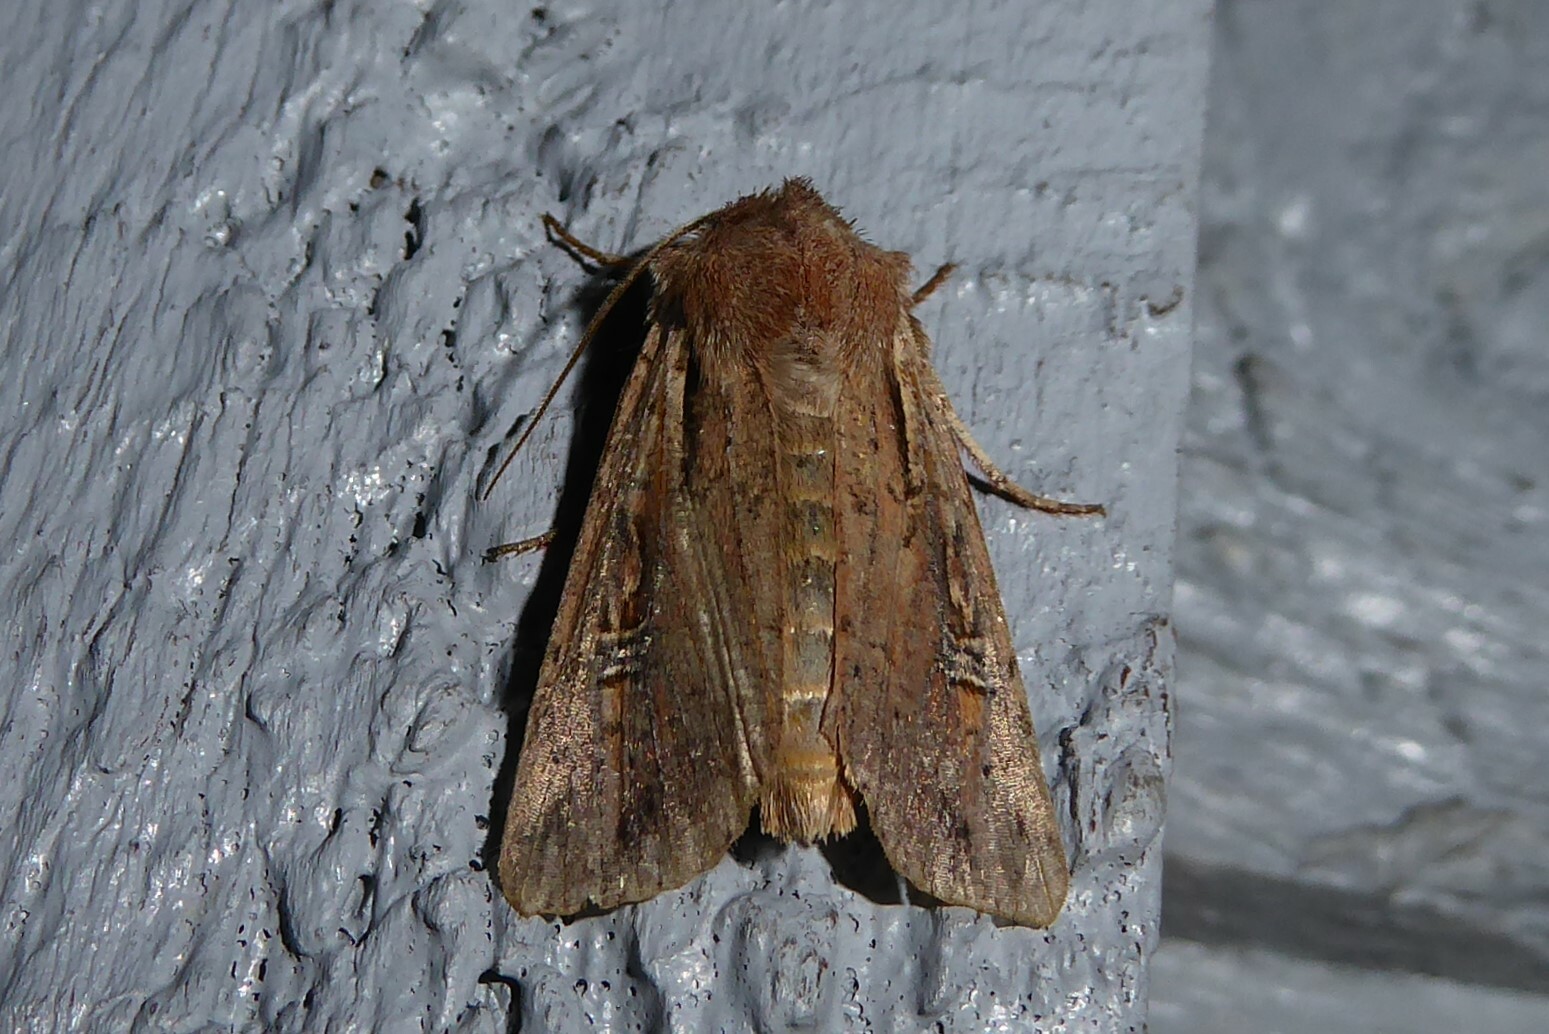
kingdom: Animalia
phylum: Arthropoda
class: Insecta
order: Lepidoptera
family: Noctuidae
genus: Ichneutica
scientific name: Ichneutica atristriga
